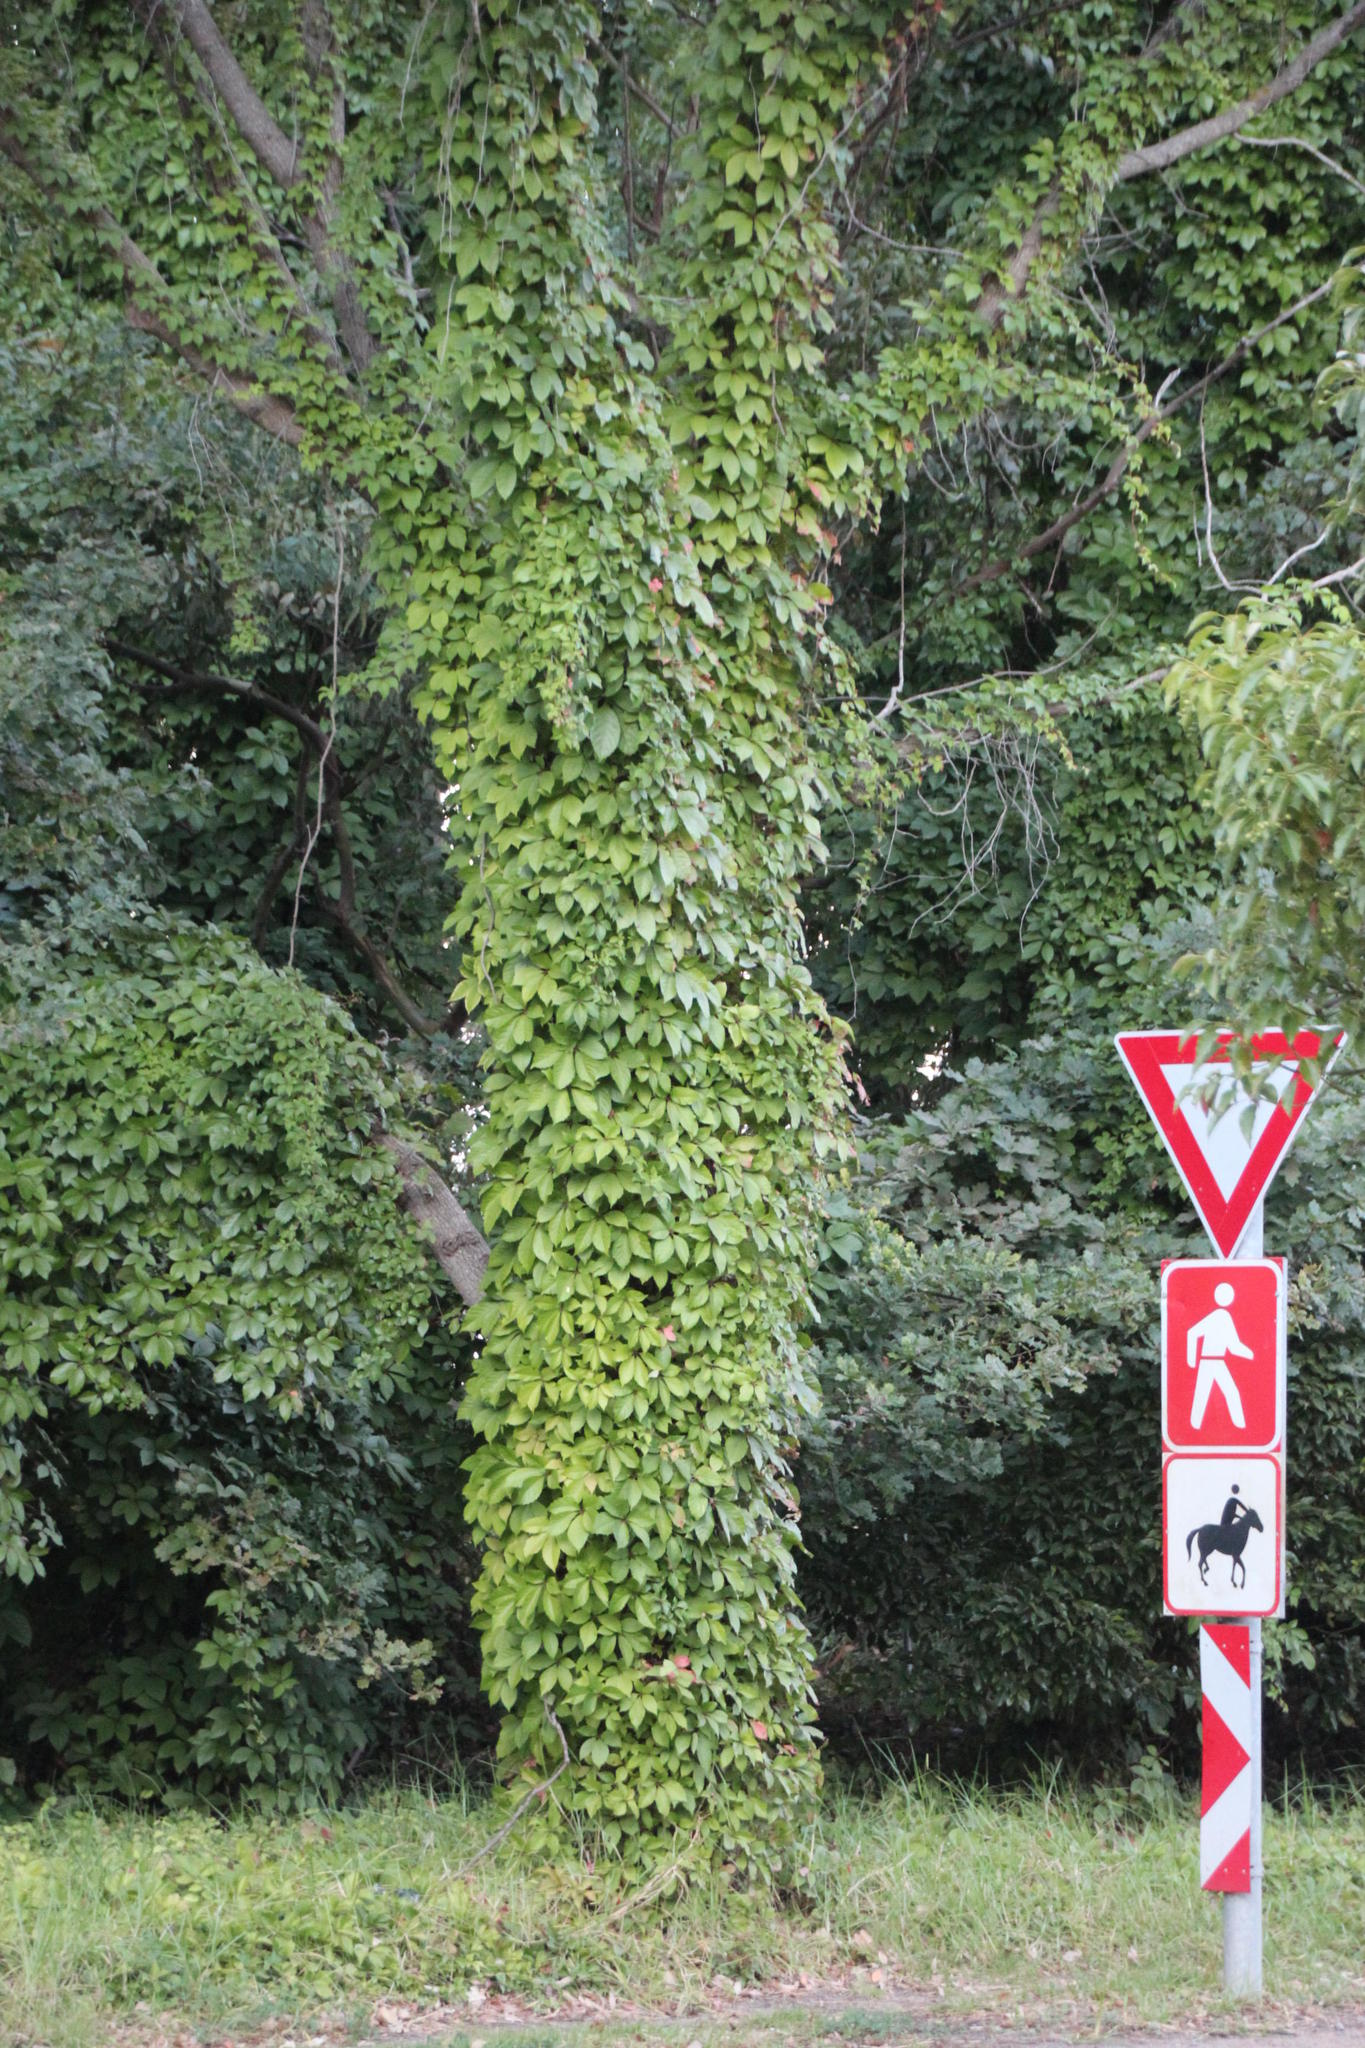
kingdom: Plantae
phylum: Tracheophyta
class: Magnoliopsida
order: Vitales
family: Vitaceae
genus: Parthenocissus
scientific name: Parthenocissus quinquefolia
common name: Virginia-creeper
